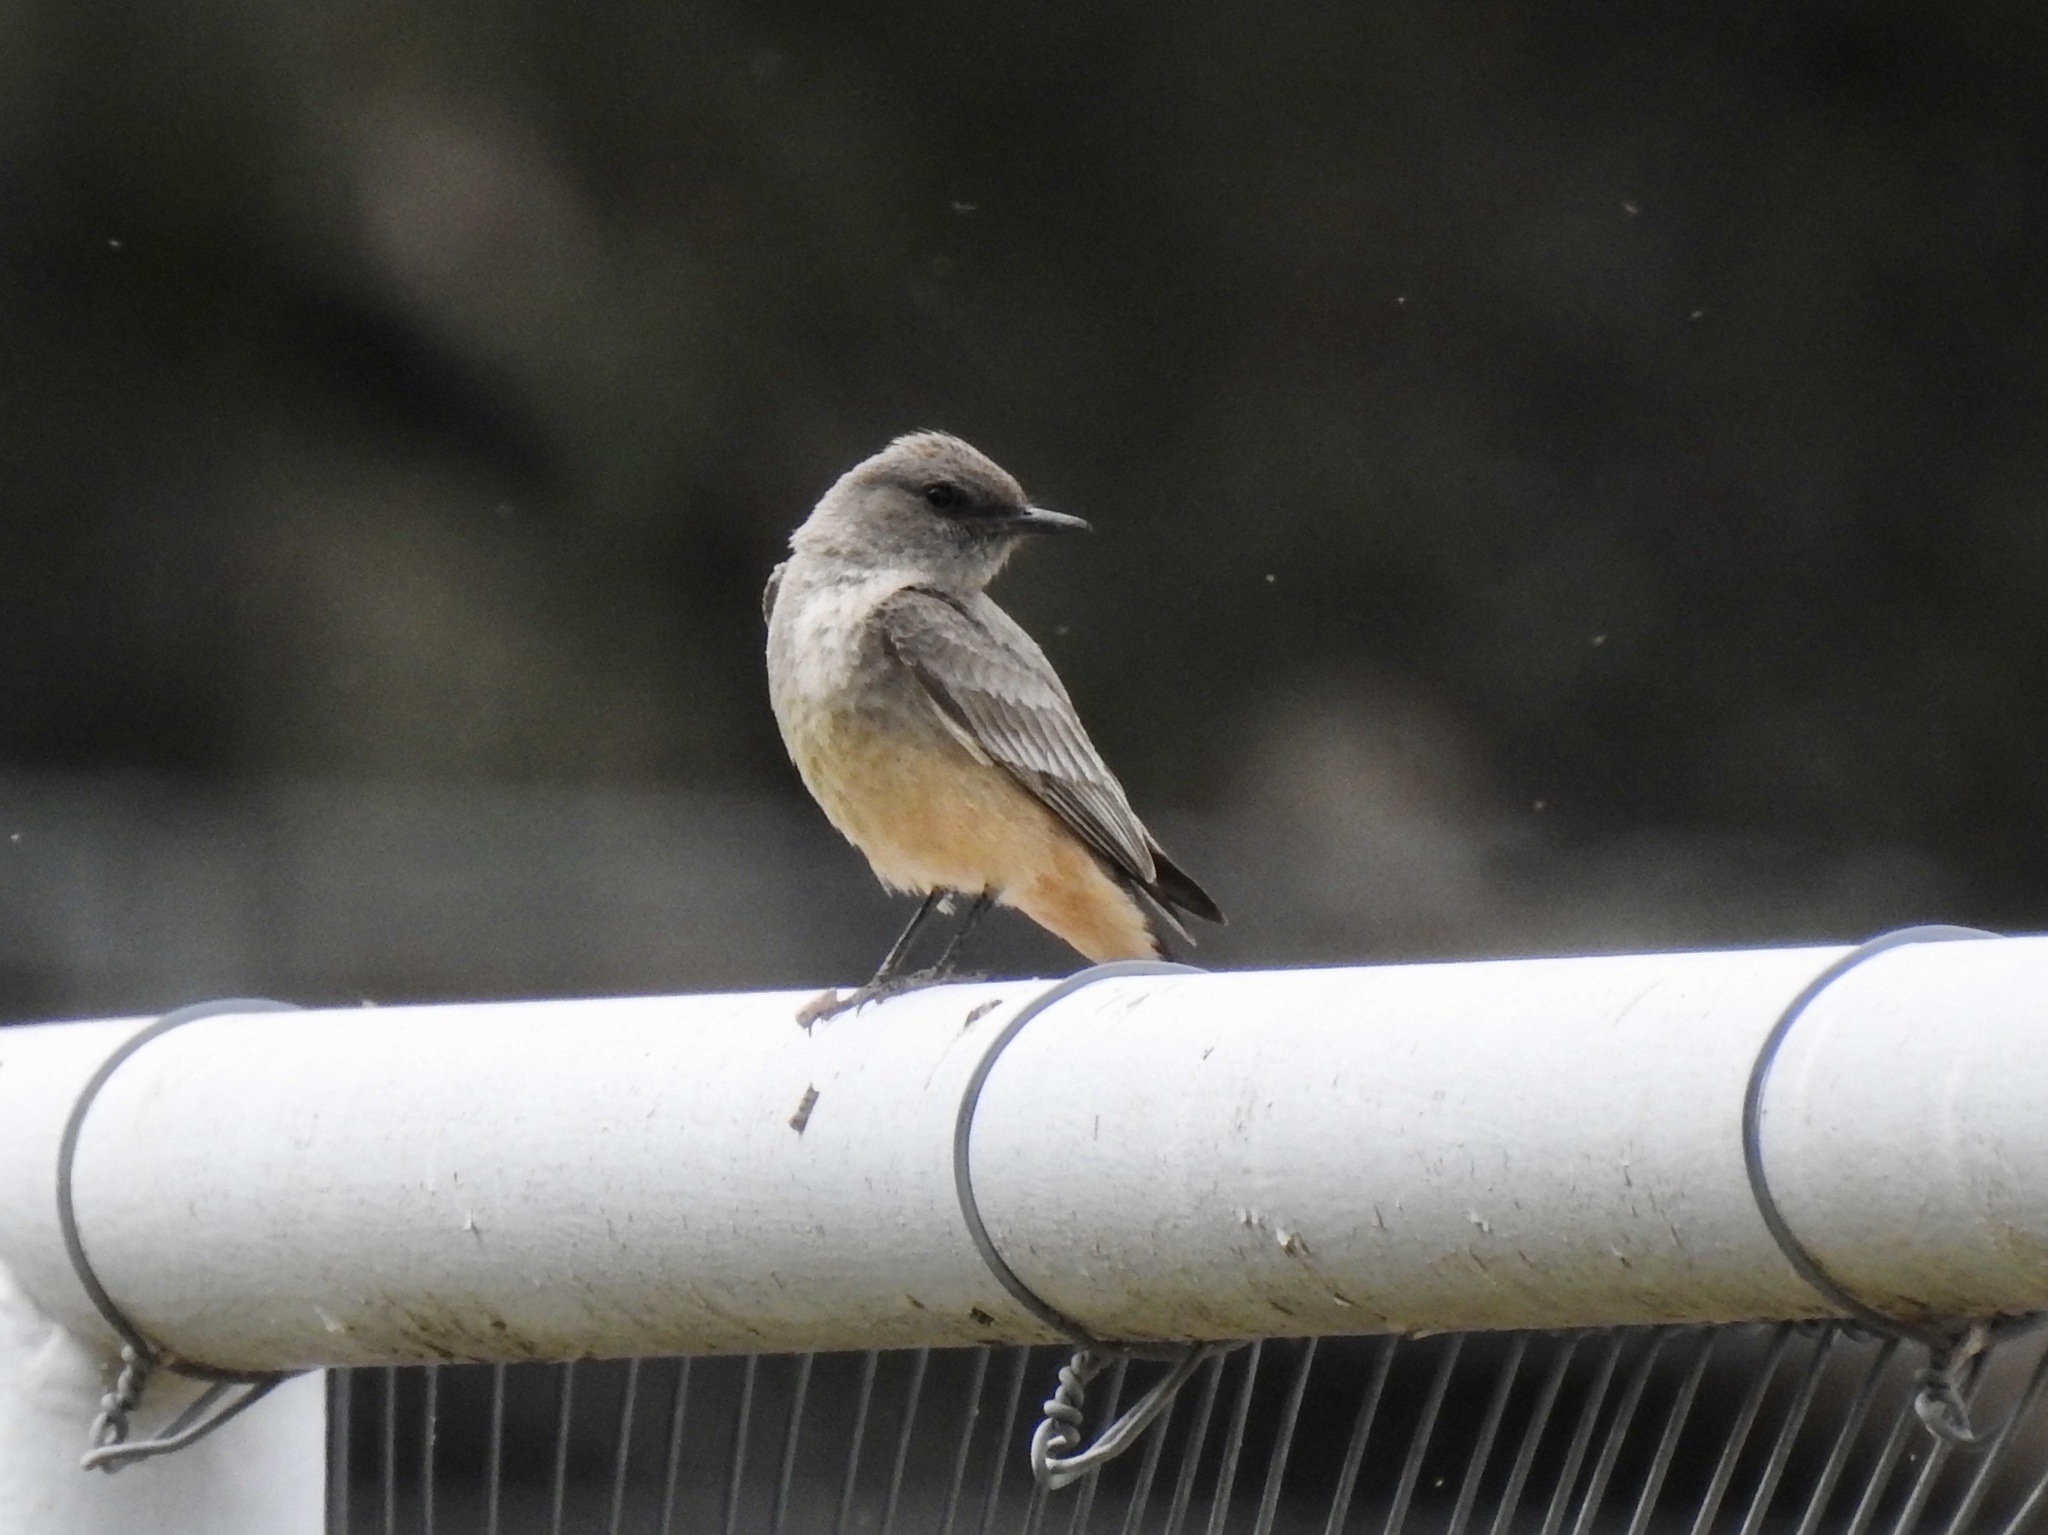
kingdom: Animalia
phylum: Chordata
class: Aves
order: Passeriformes
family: Tyrannidae
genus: Sayornis
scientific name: Sayornis saya
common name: Say's phoebe
